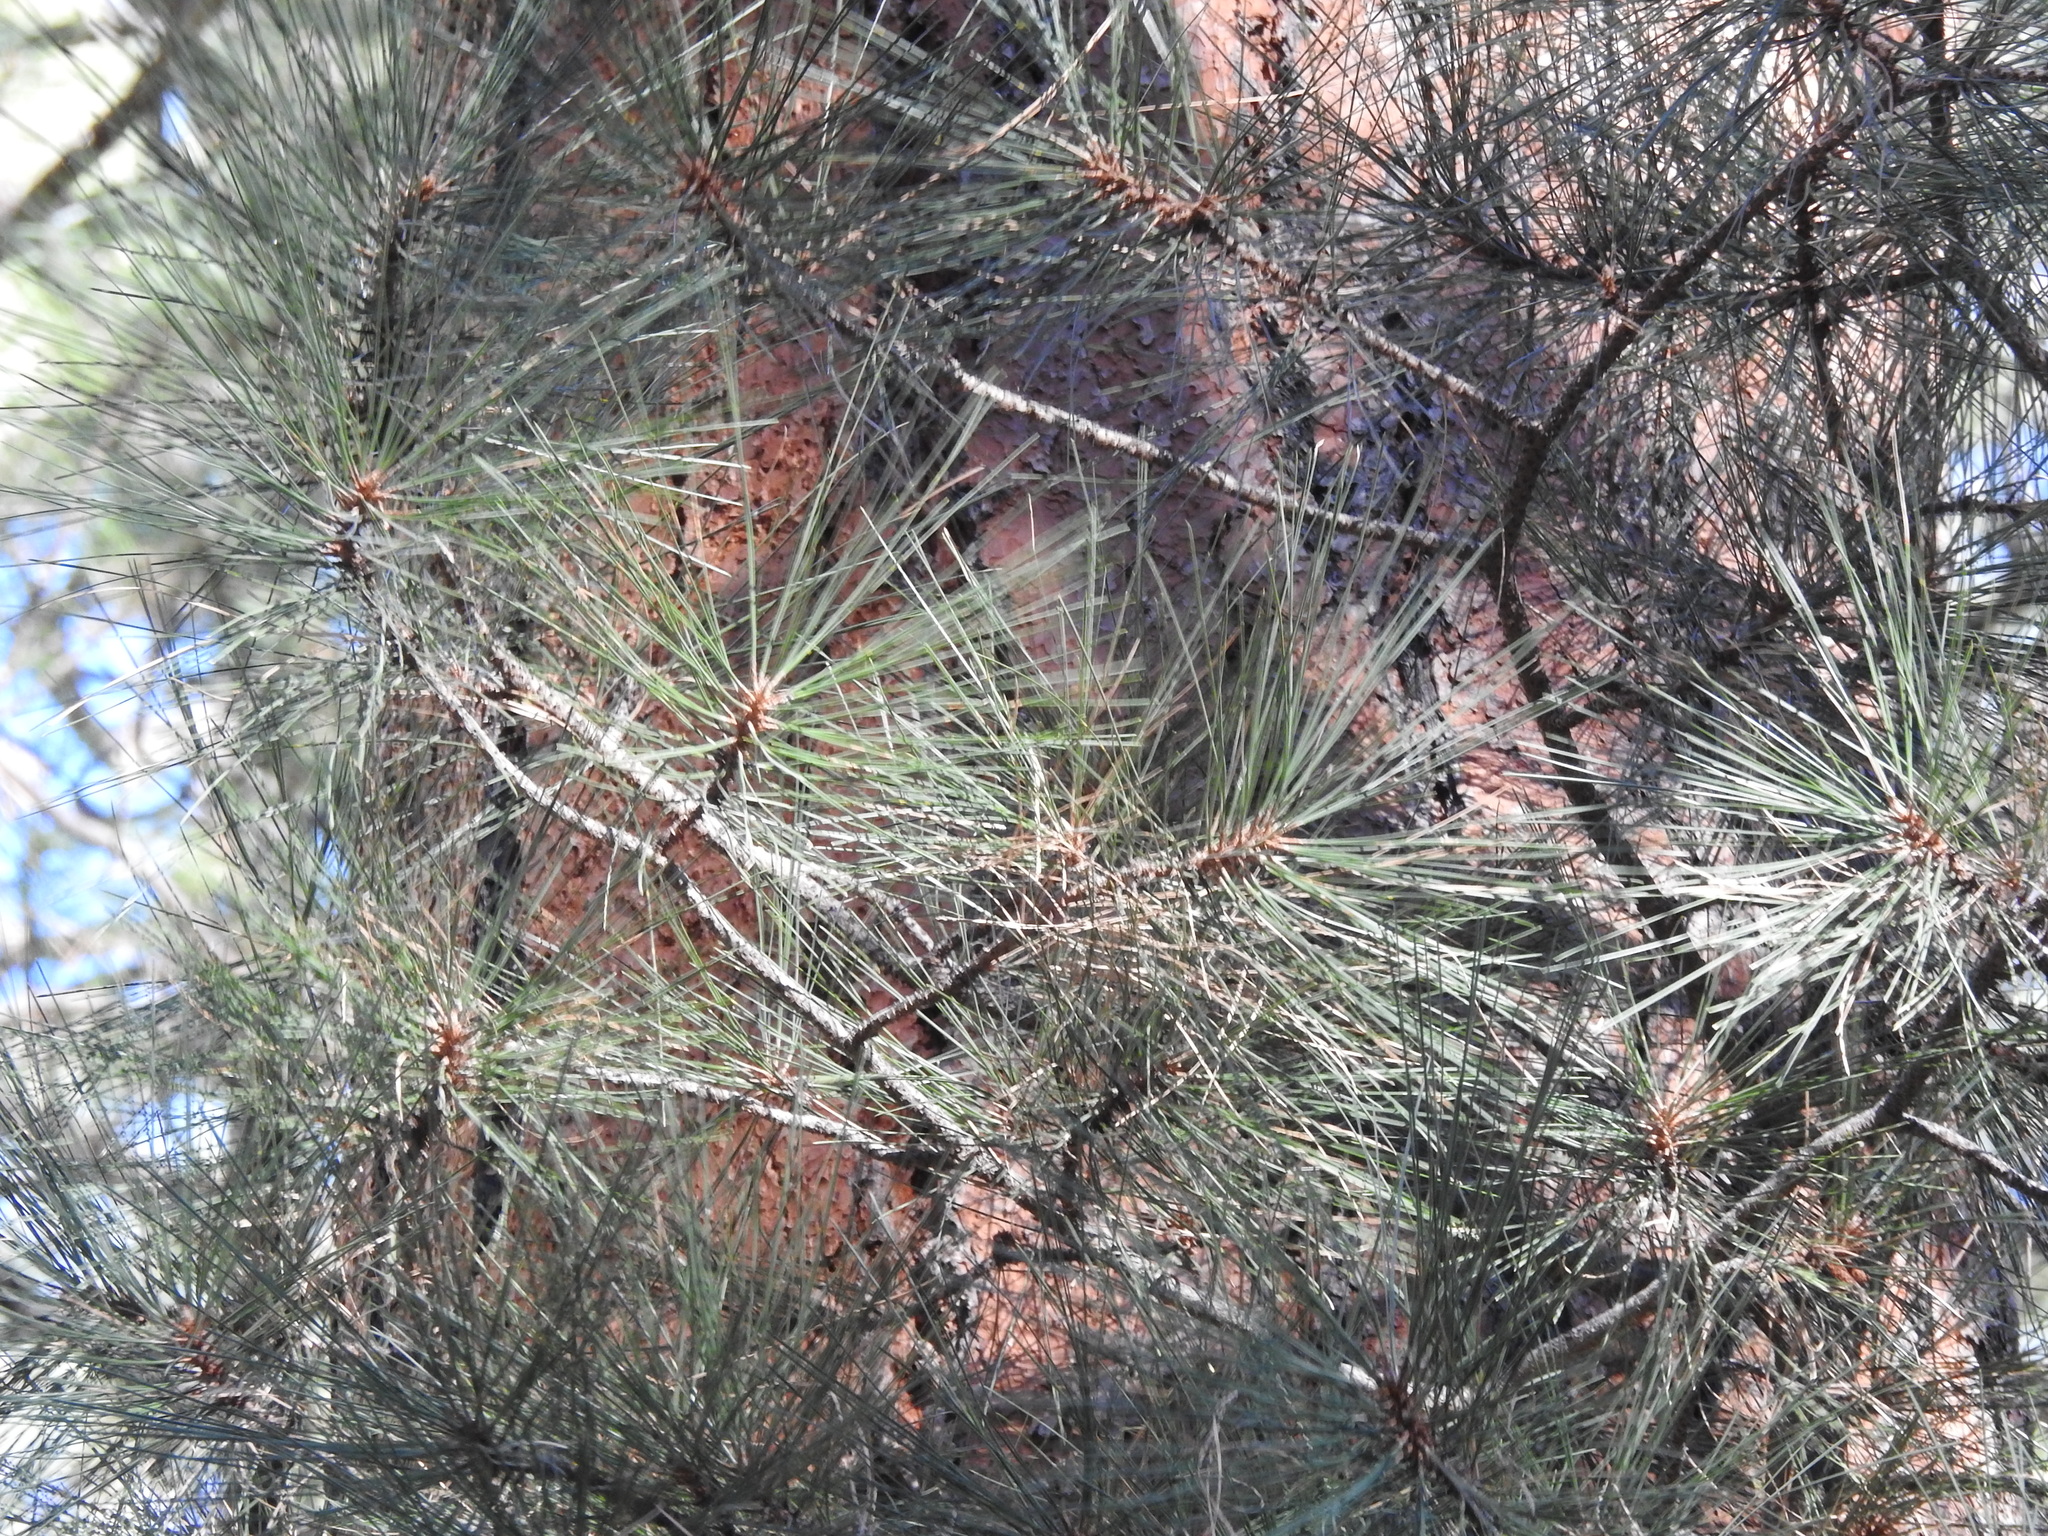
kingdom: Plantae
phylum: Tracheophyta
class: Pinopsida
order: Pinales
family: Pinaceae
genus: Pinus
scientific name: Pinus ponderosa
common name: Western yellow-pine
